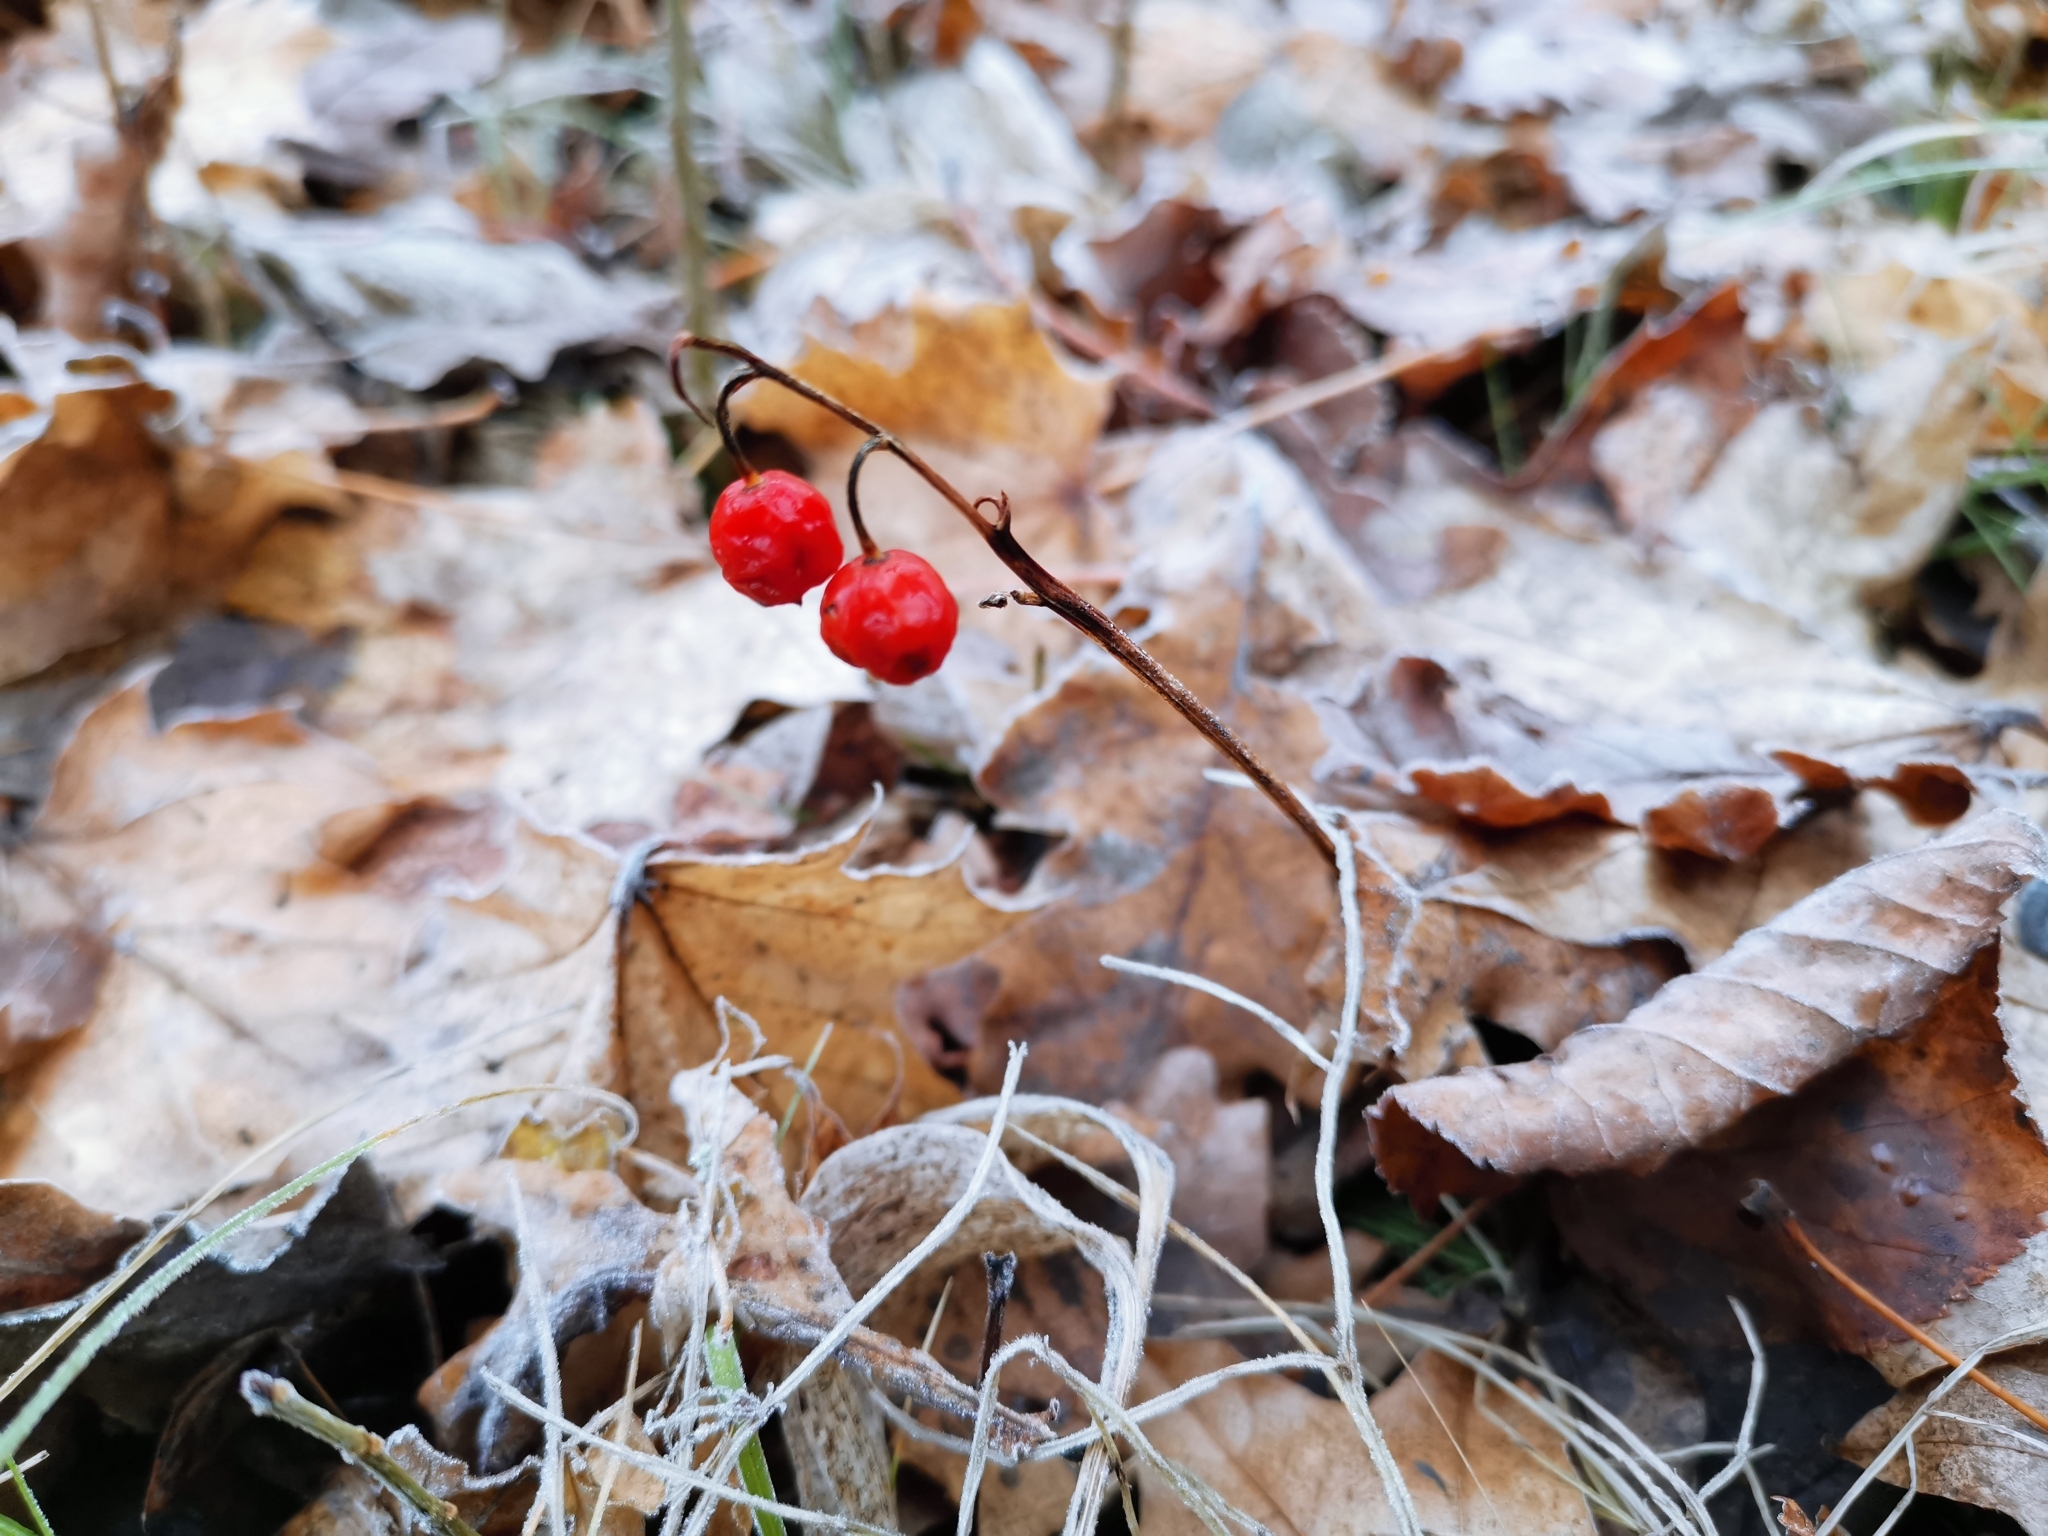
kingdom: Plantae
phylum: Tracheophyta
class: Liliopsida
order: Asparagales
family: Asparagaceae
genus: Convallaria
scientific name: Convallaria majalis
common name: Lily-of-the-valley
